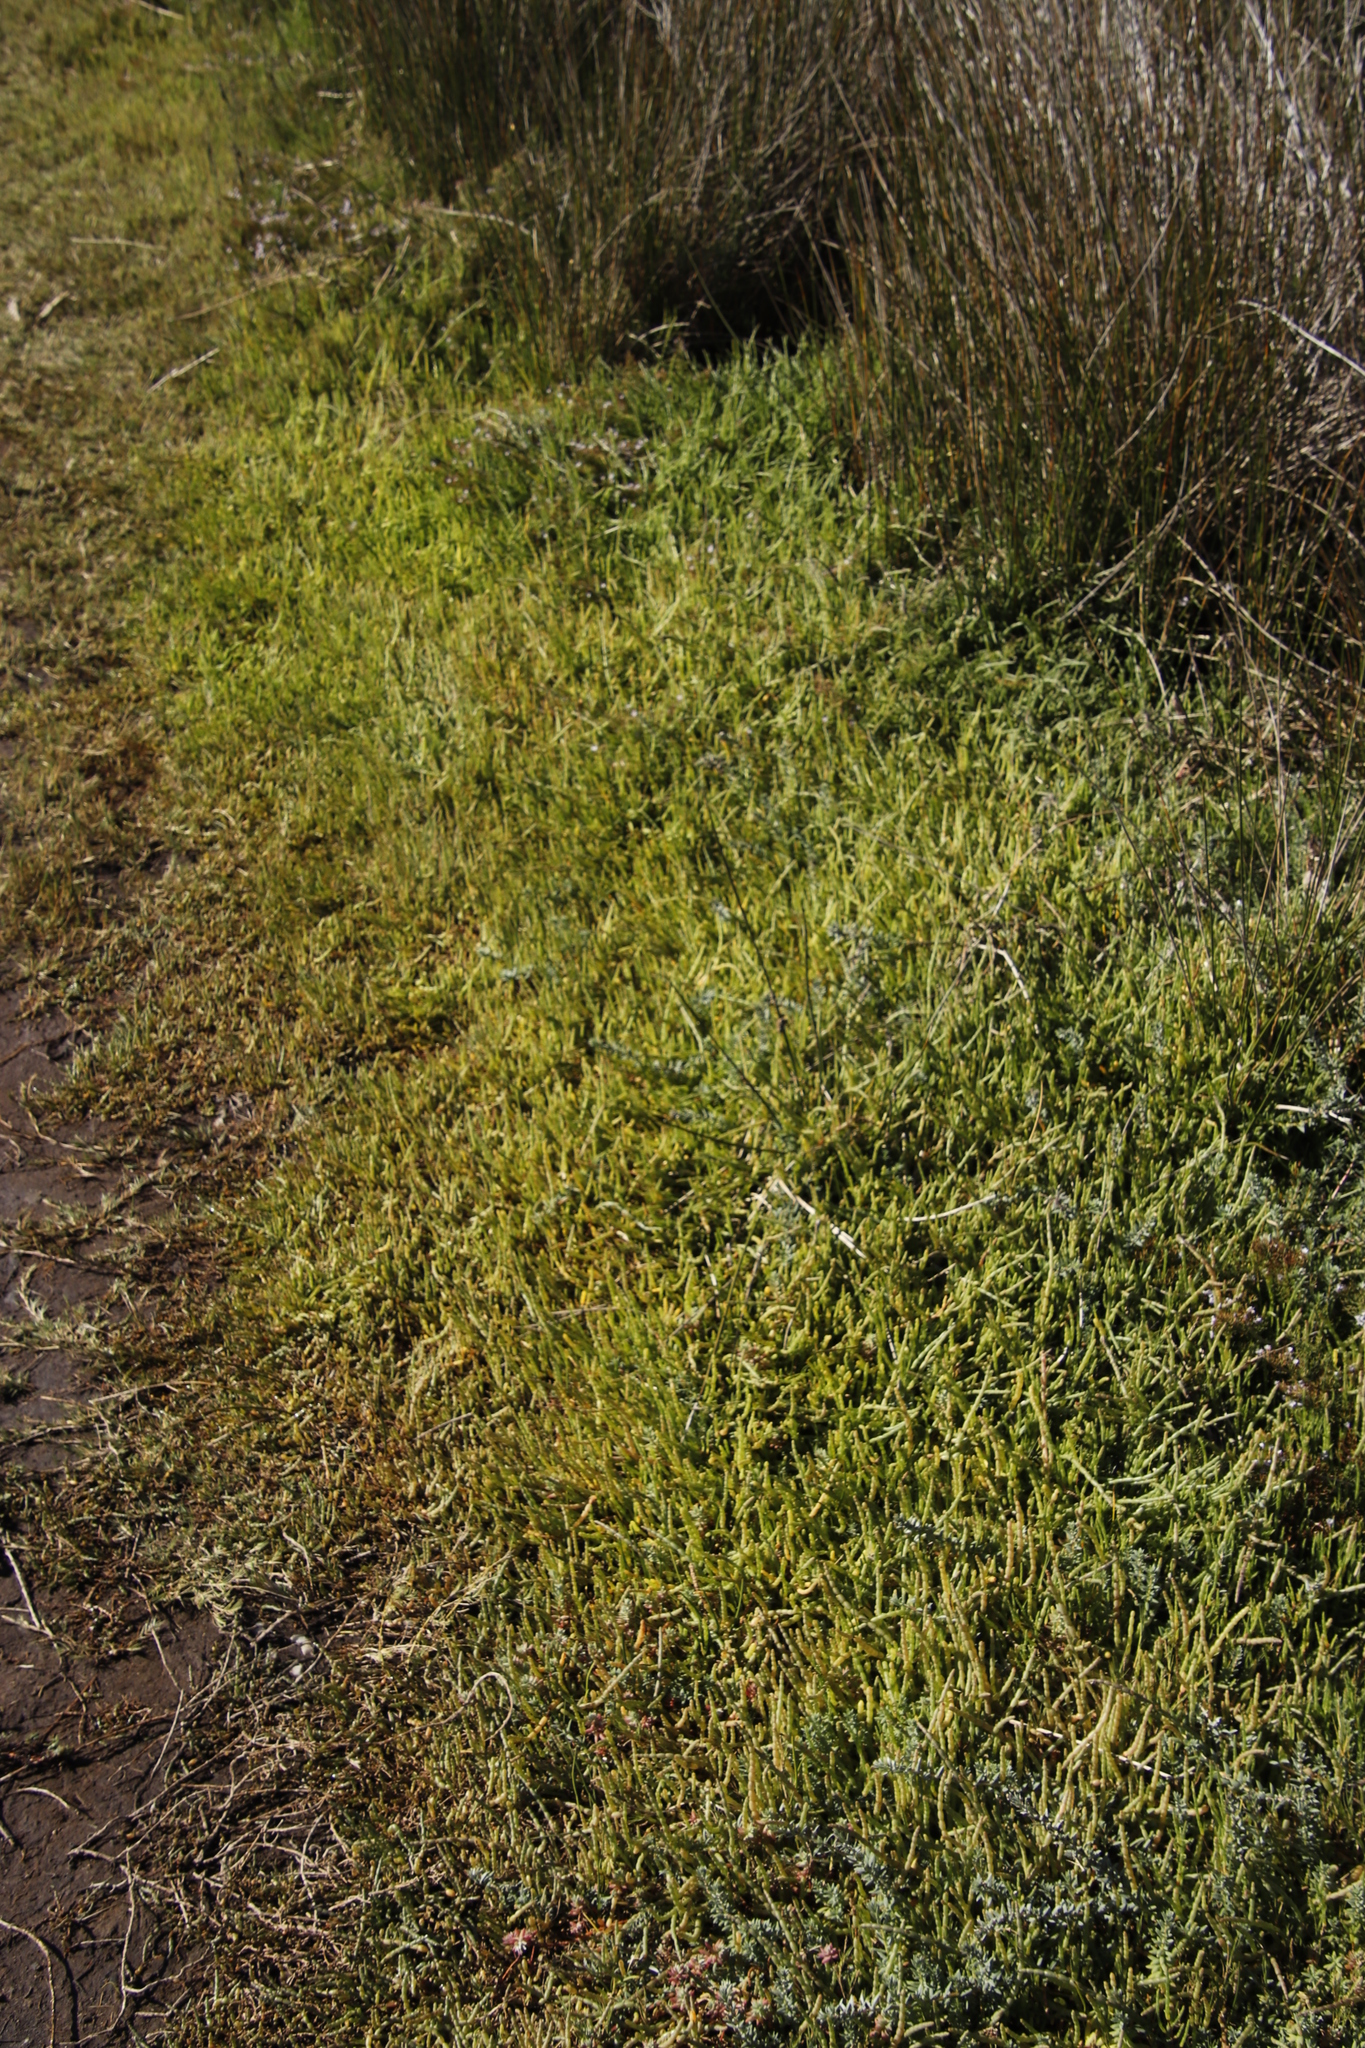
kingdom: Plantae
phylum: Tracheophyta
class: Magnoliopsida
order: Caryophyllales
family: Amaranthaceae
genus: Salicornia
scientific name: Salicornia tegetaria
